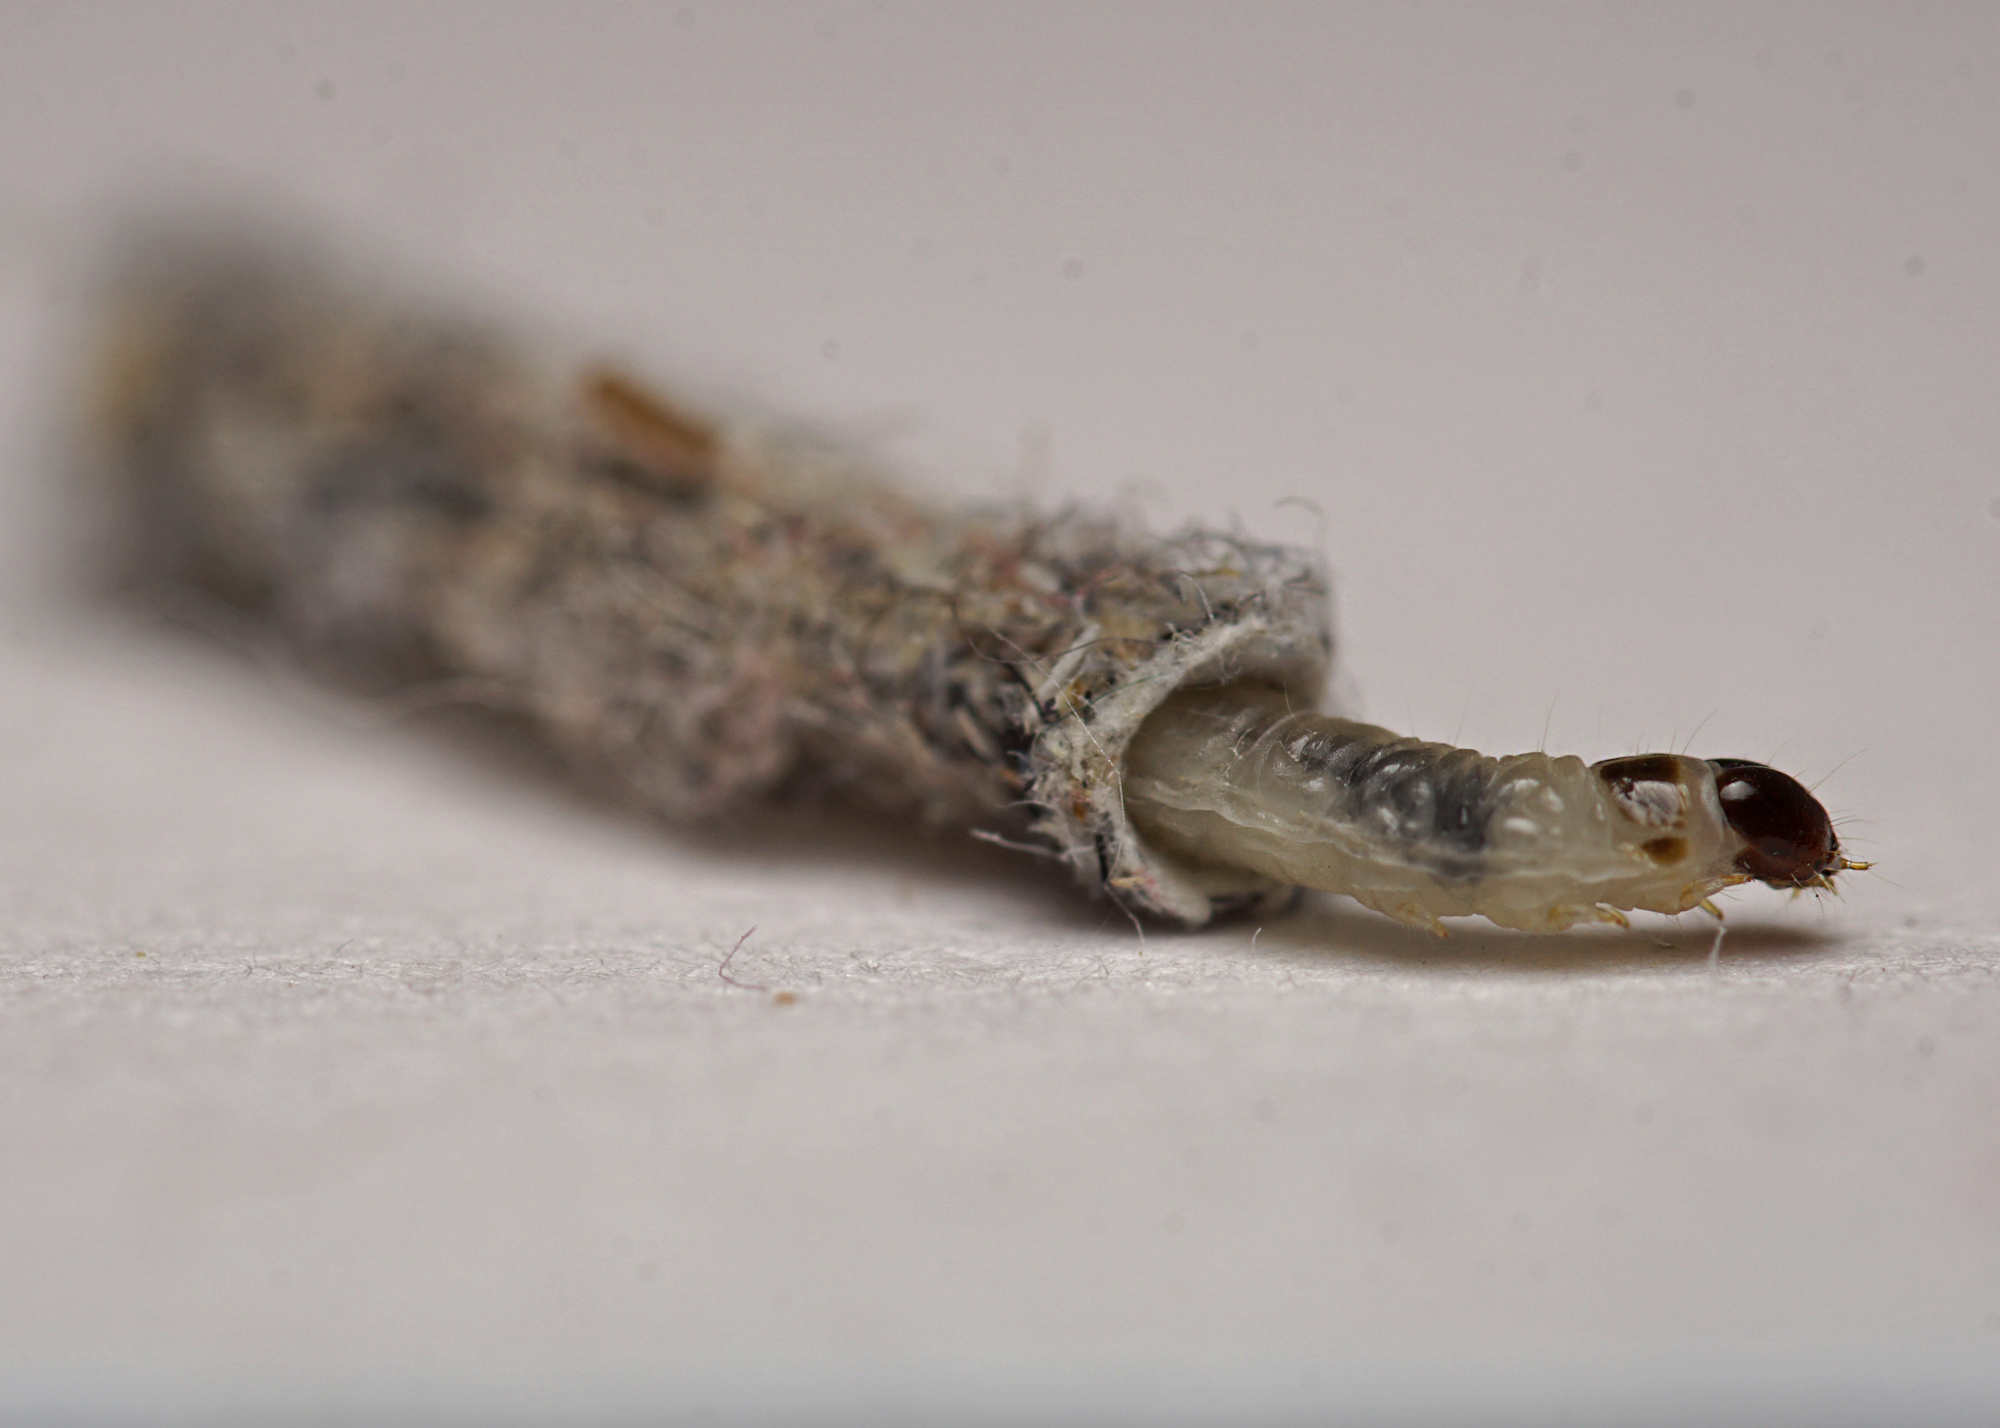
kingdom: Animalia
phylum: Arthropoda
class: Insecta
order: Lepidoptera
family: Tineidae
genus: Tinea
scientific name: Tinea pellionella
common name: Case-making clothes moth
